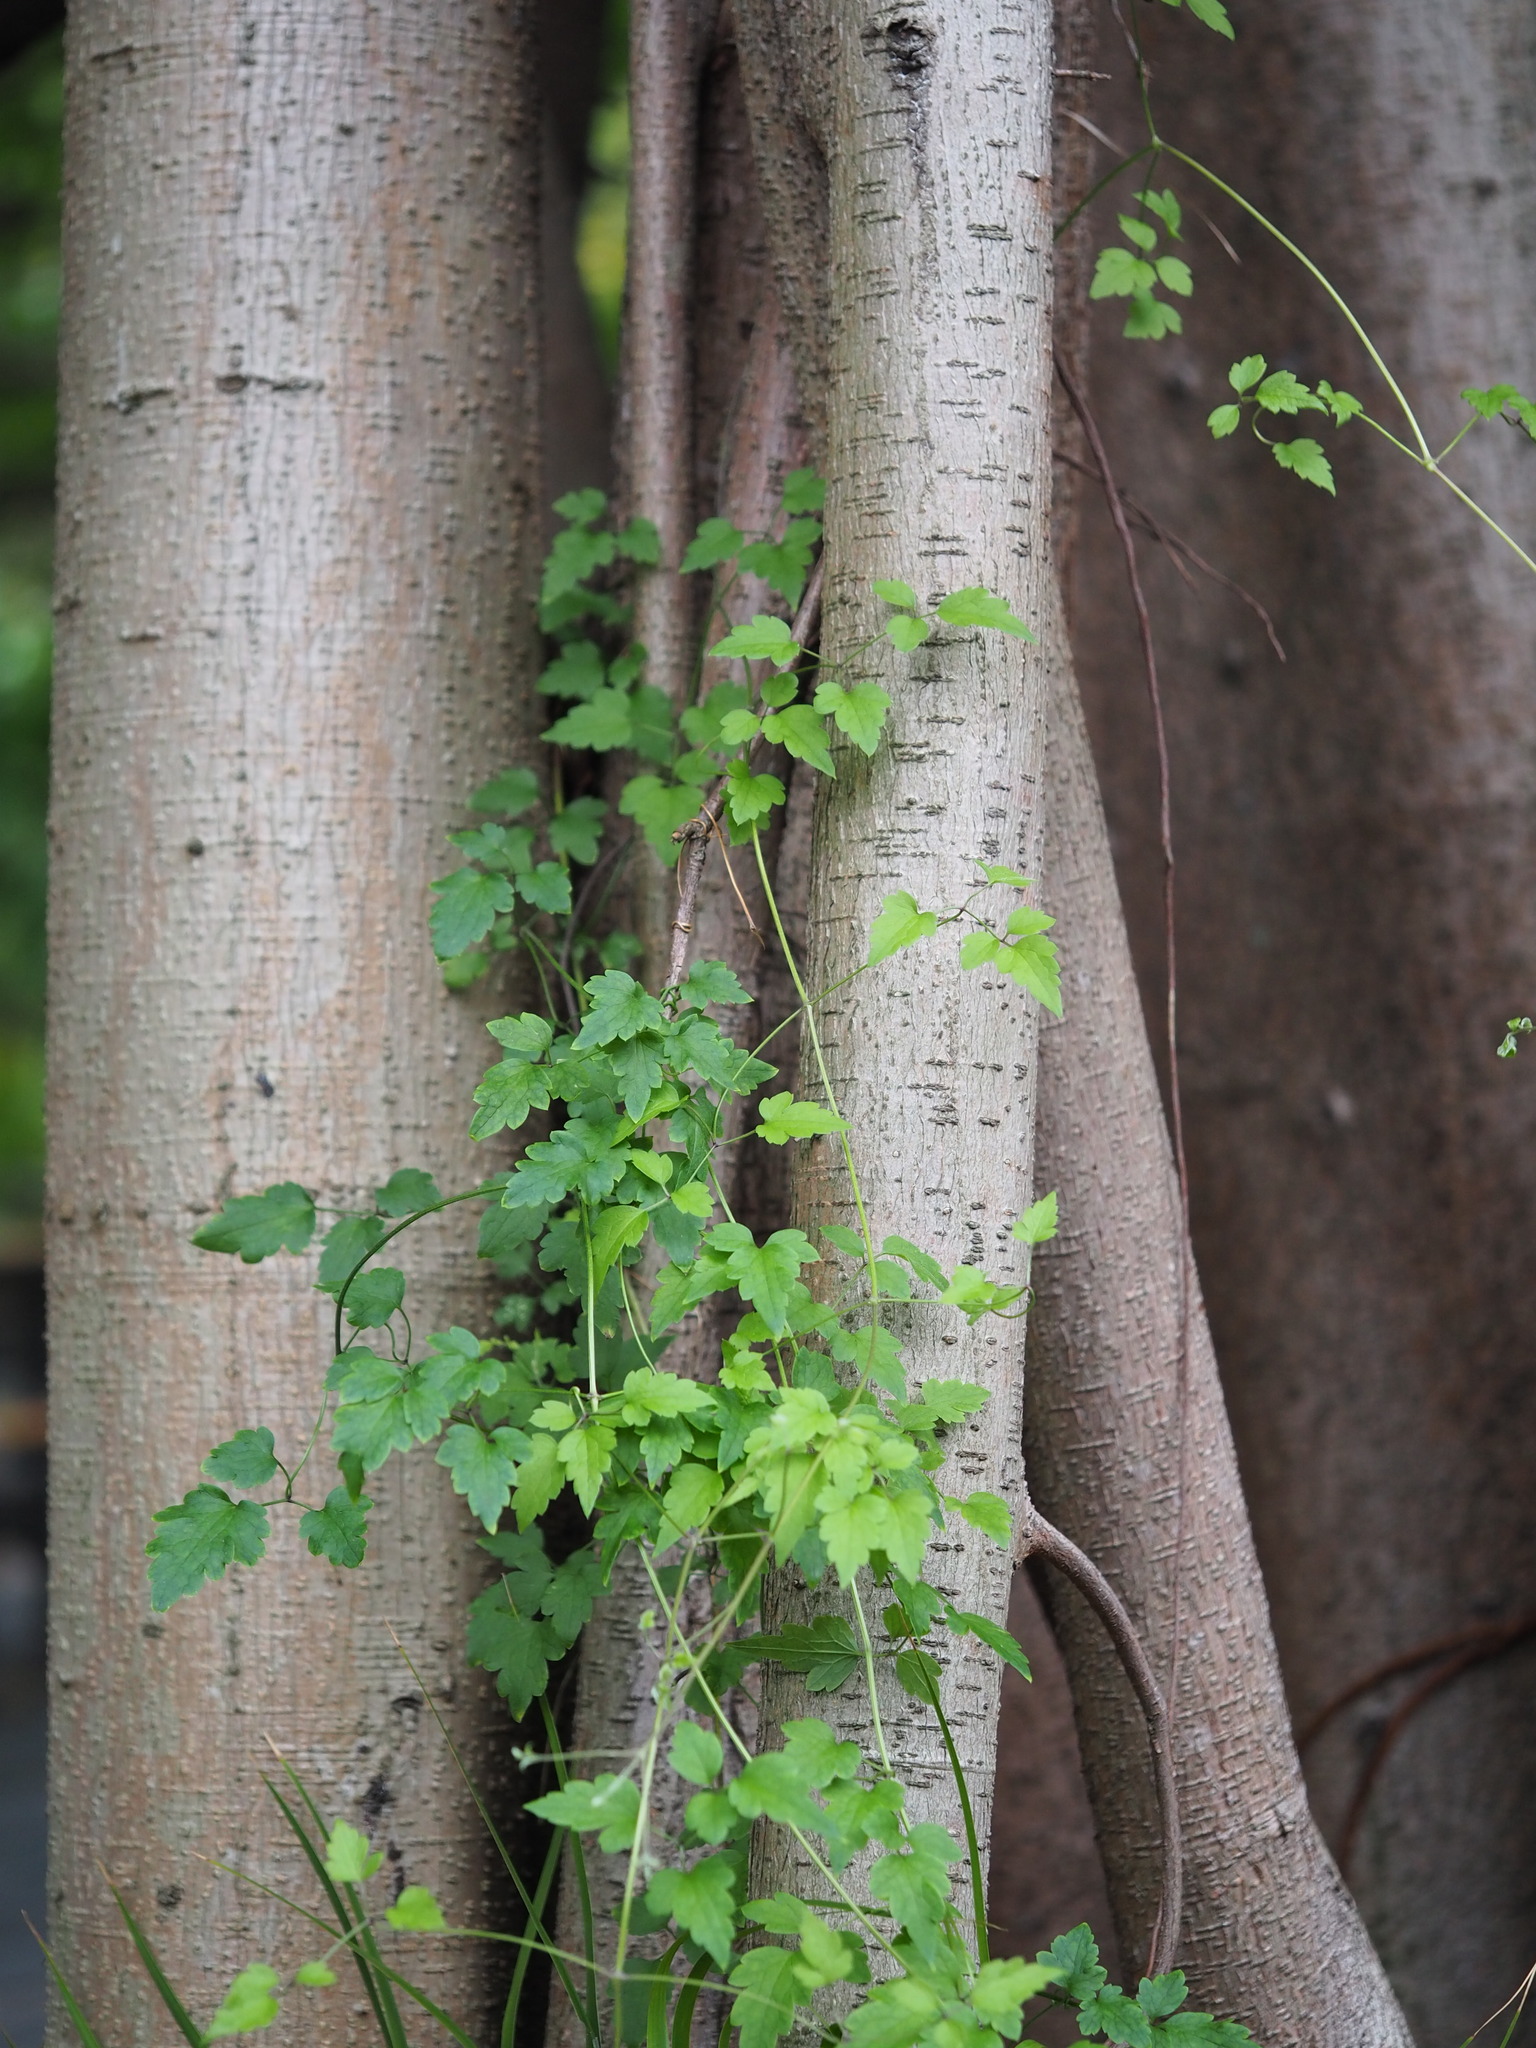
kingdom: Plantae
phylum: Tracheophyta
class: Magnoliopsida
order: Ranunculales
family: Ranunculaceae
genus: Clematis
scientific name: Clematis grata
